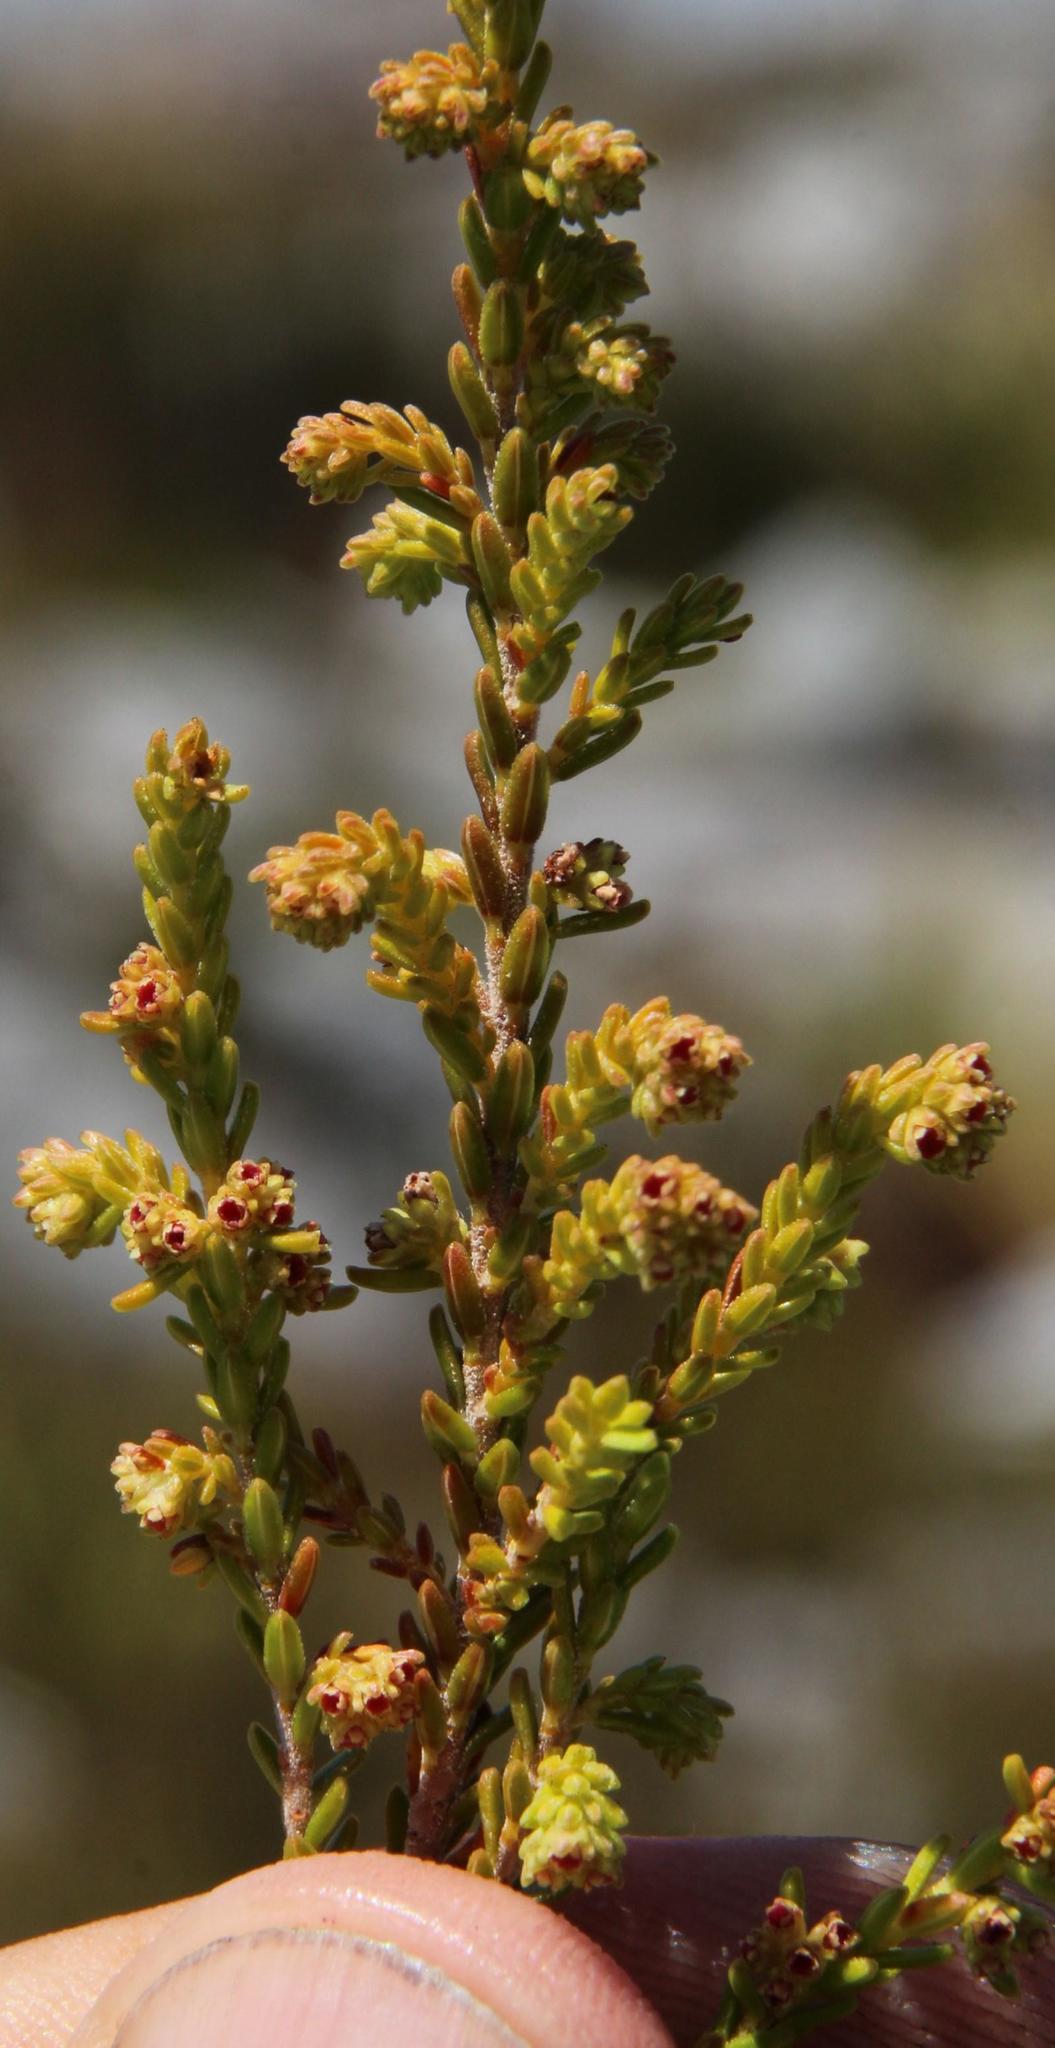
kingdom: Plantae
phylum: Tracheophyta
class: Magnoliopsida
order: Ericales
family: Ericaceae
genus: Erica
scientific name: Erica serrata
